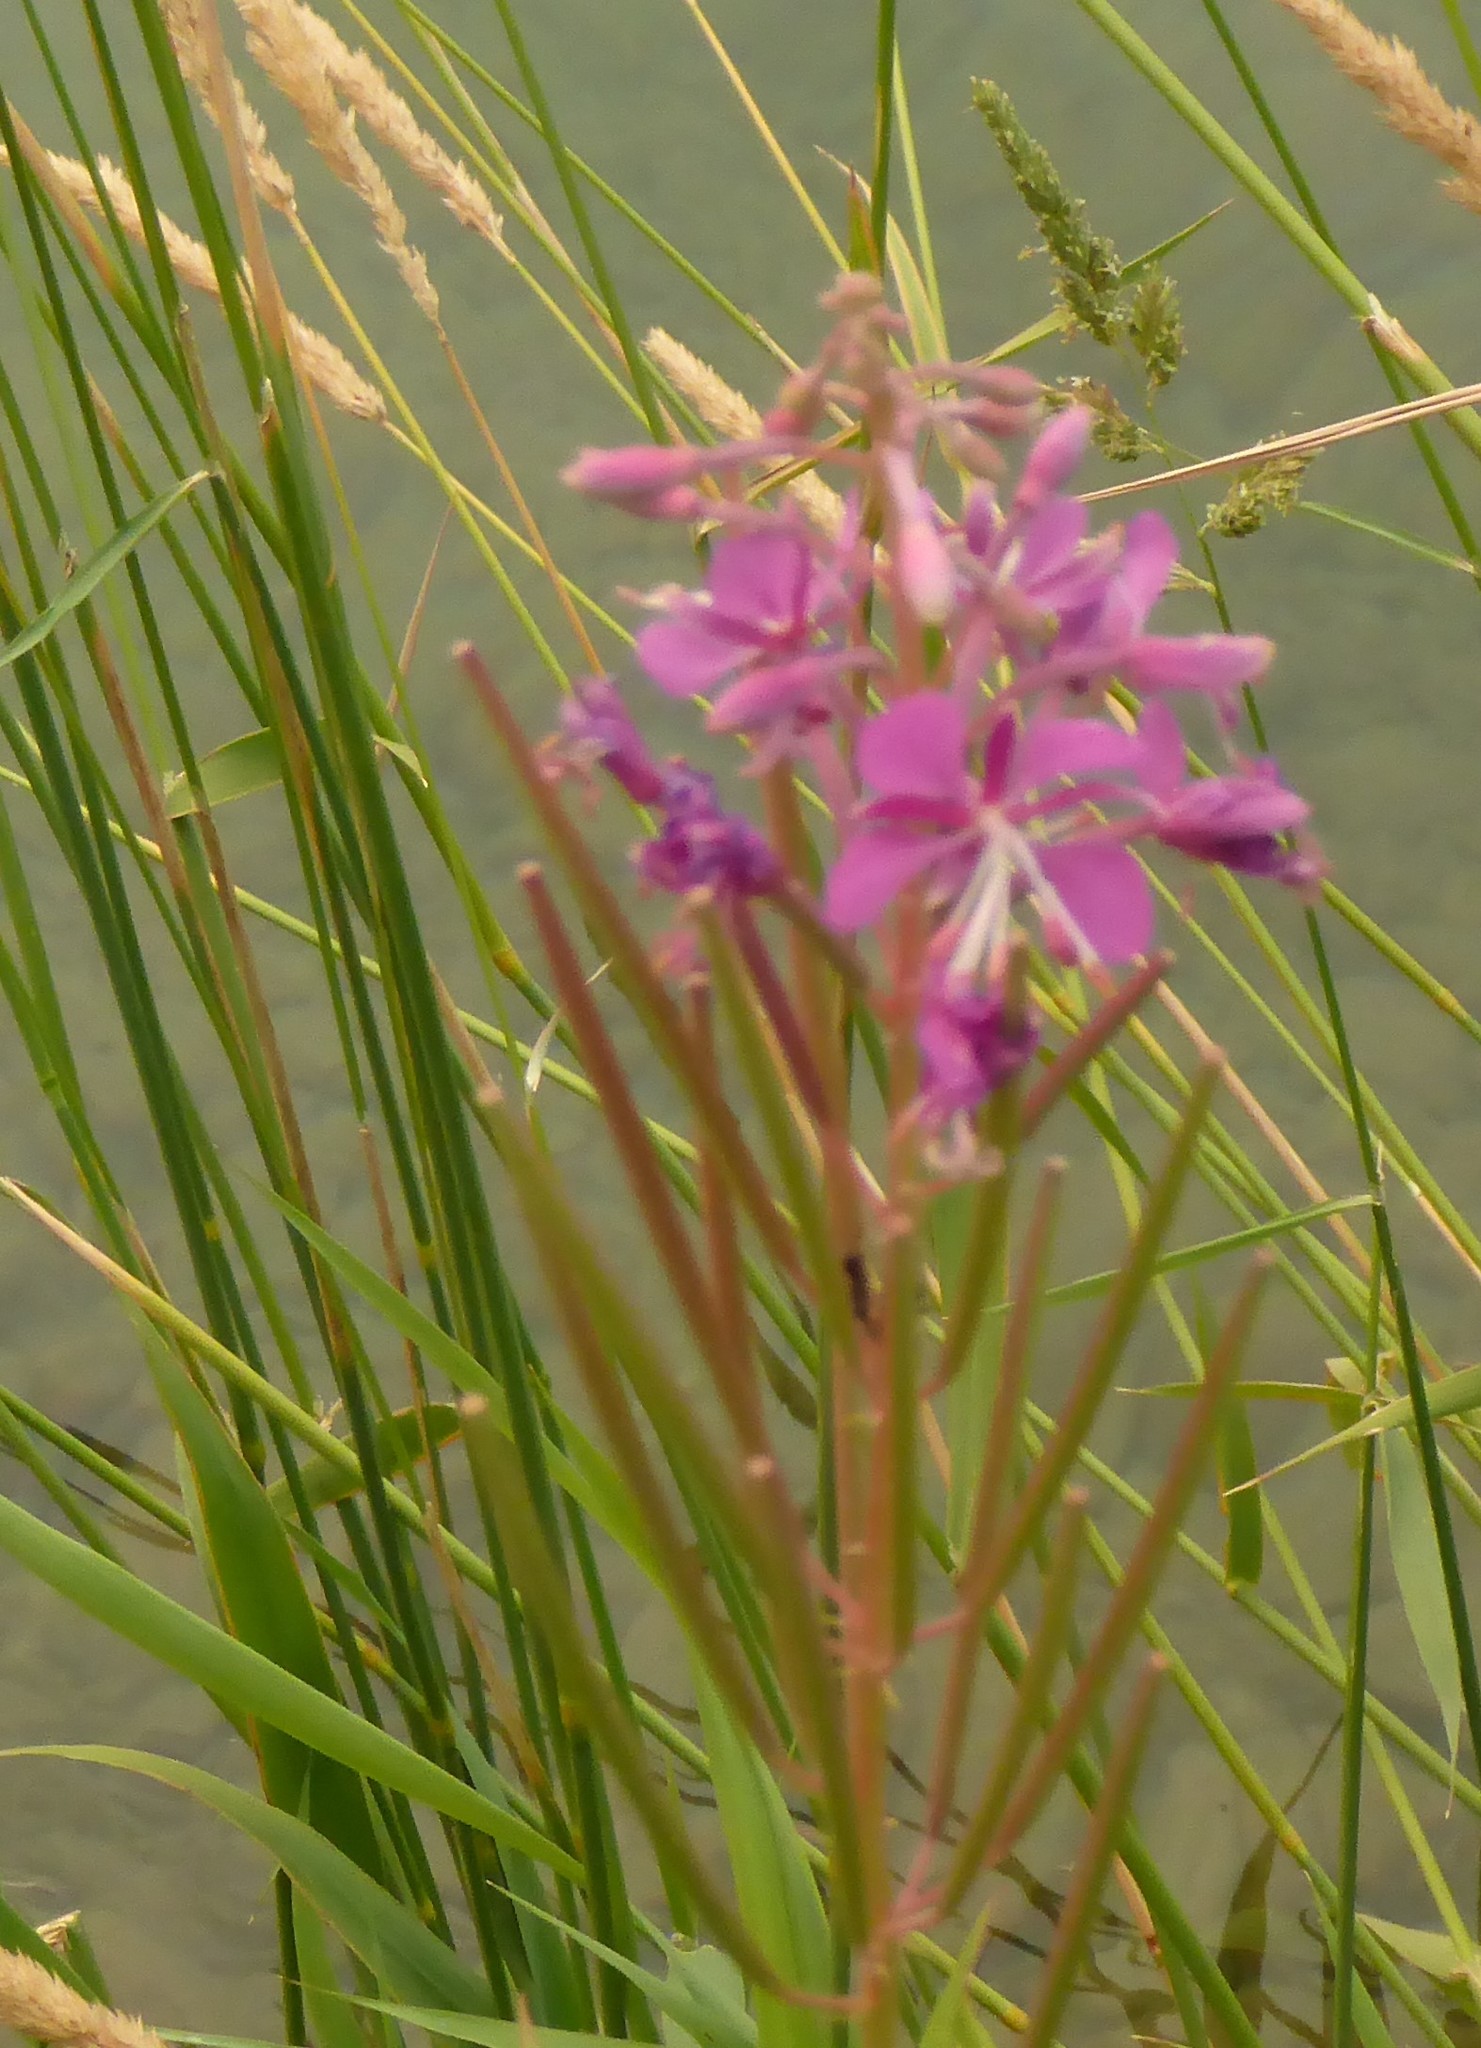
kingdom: Plantae
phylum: Tracheophyta
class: Magnoliopsida
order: Myrtales
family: Onagraceae
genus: Chamaenerion
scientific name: Chamaenerion angustifolium
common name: Fireweed
